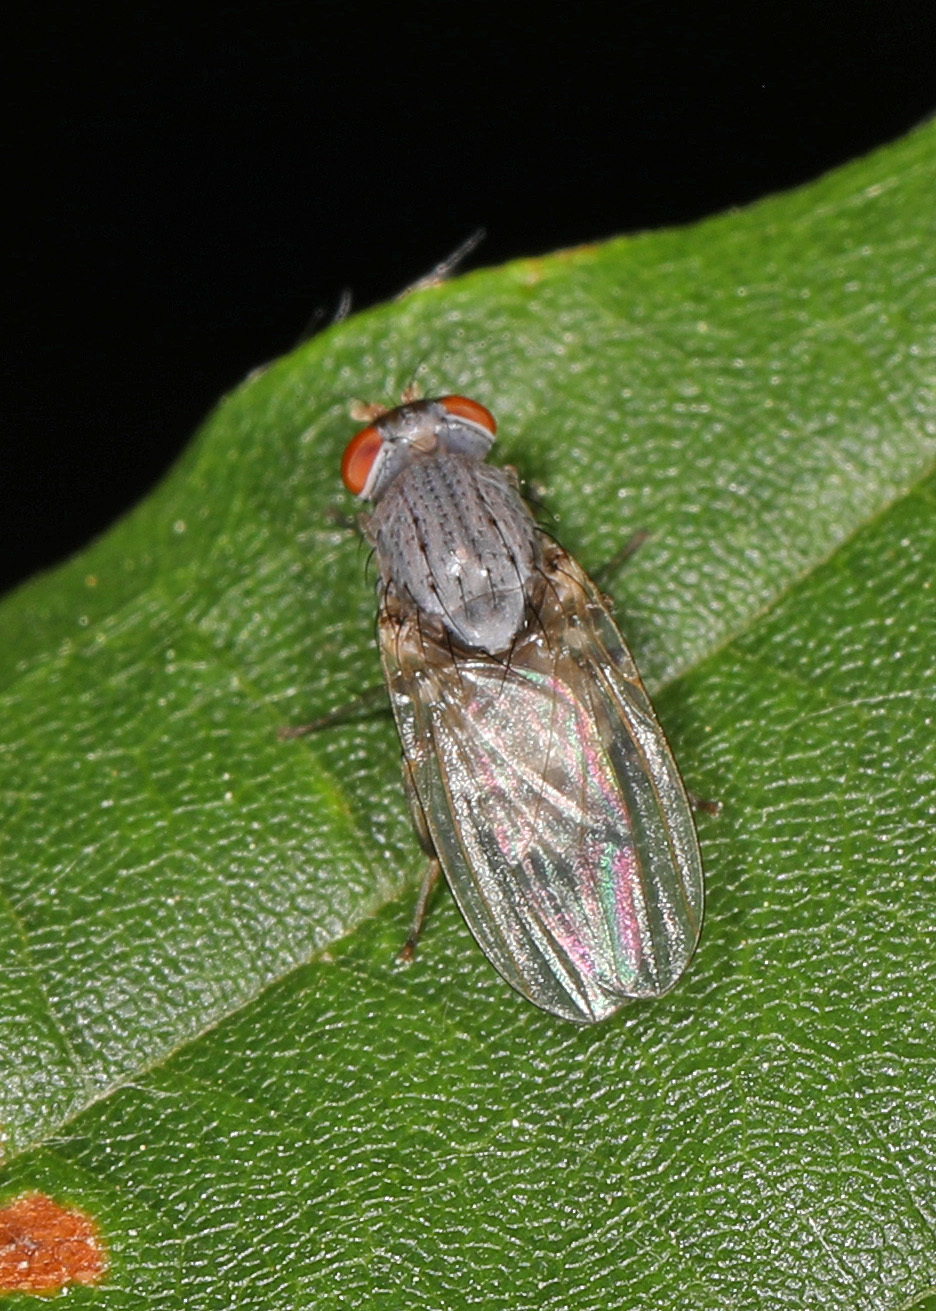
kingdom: Animalia
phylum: Arthropoda
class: Insecta
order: Diptera
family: Lauxaniidae
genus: Minettia
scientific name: Minettia magna
